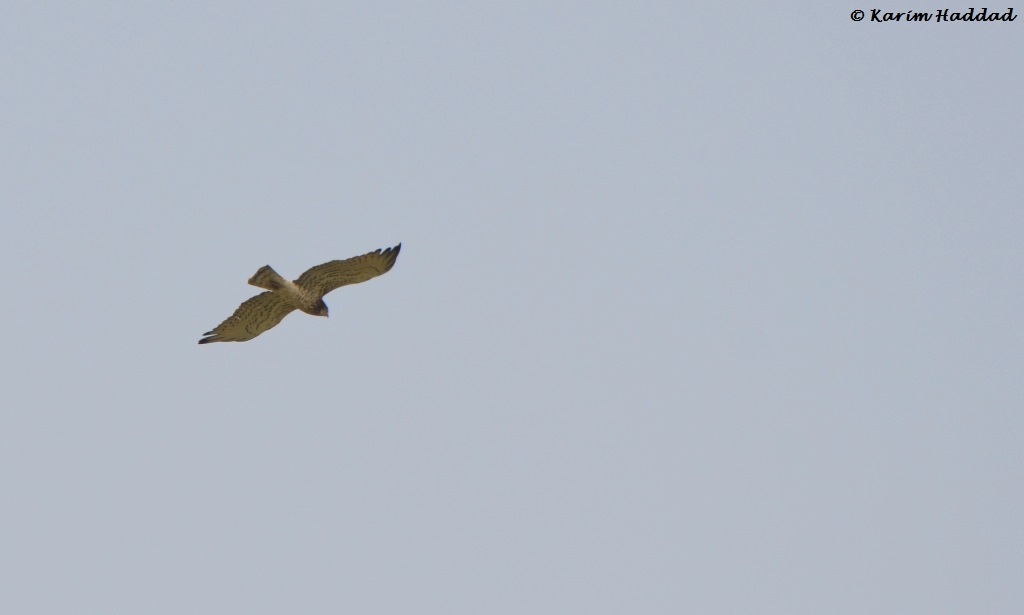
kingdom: Animalia
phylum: Chordata
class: Aves
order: Accipitriformes
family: Accipitridae
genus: Circaetus
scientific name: Circaetus gallicus
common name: Short-toed snake eagle
